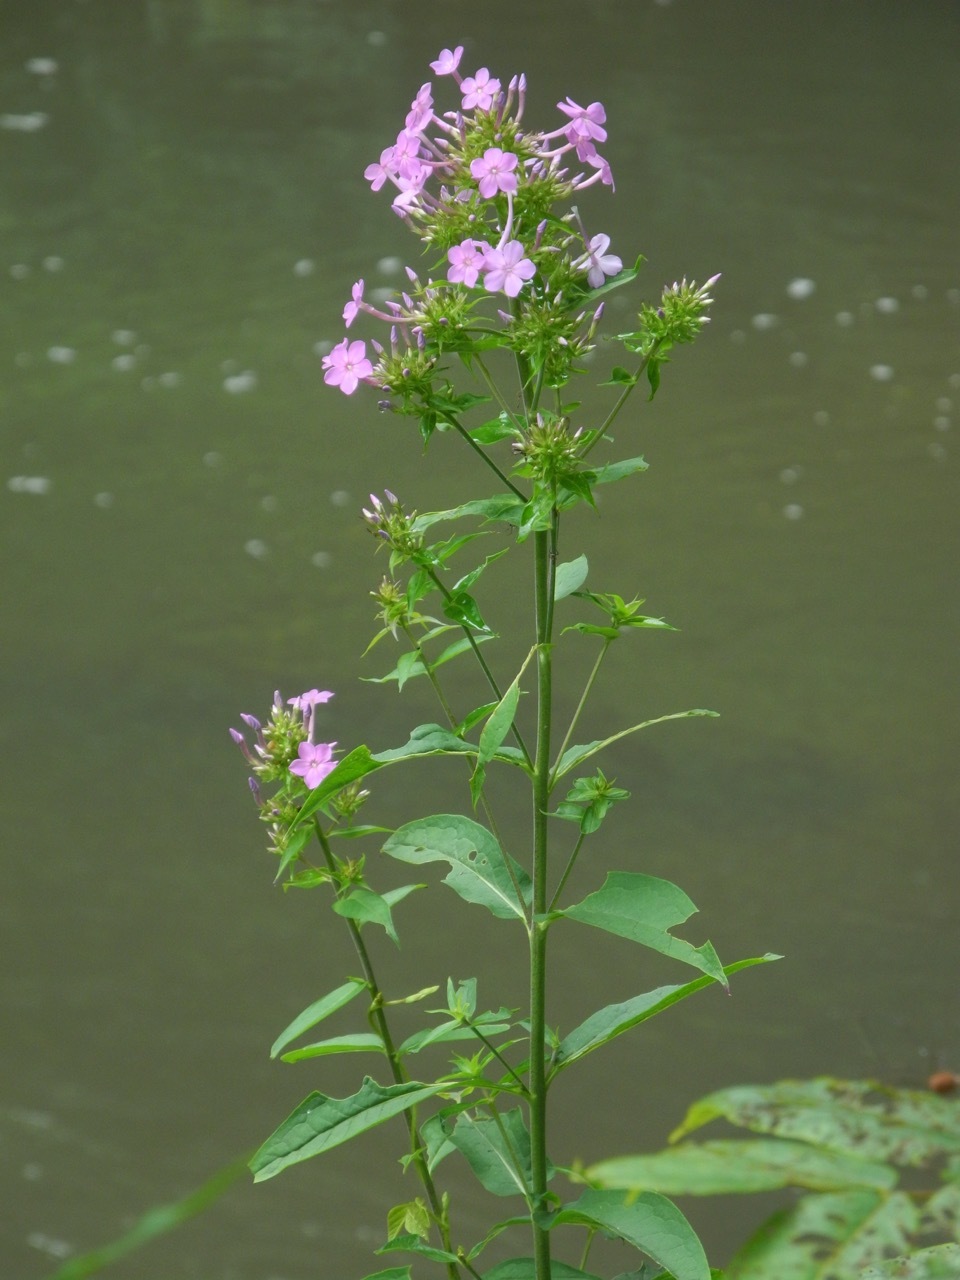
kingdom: Plantae
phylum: Tracheophyta
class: Magnoliopsida
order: Ericales
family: Polemoniaceae
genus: Phlox
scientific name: Phlox paniculata
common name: Fall phlox
